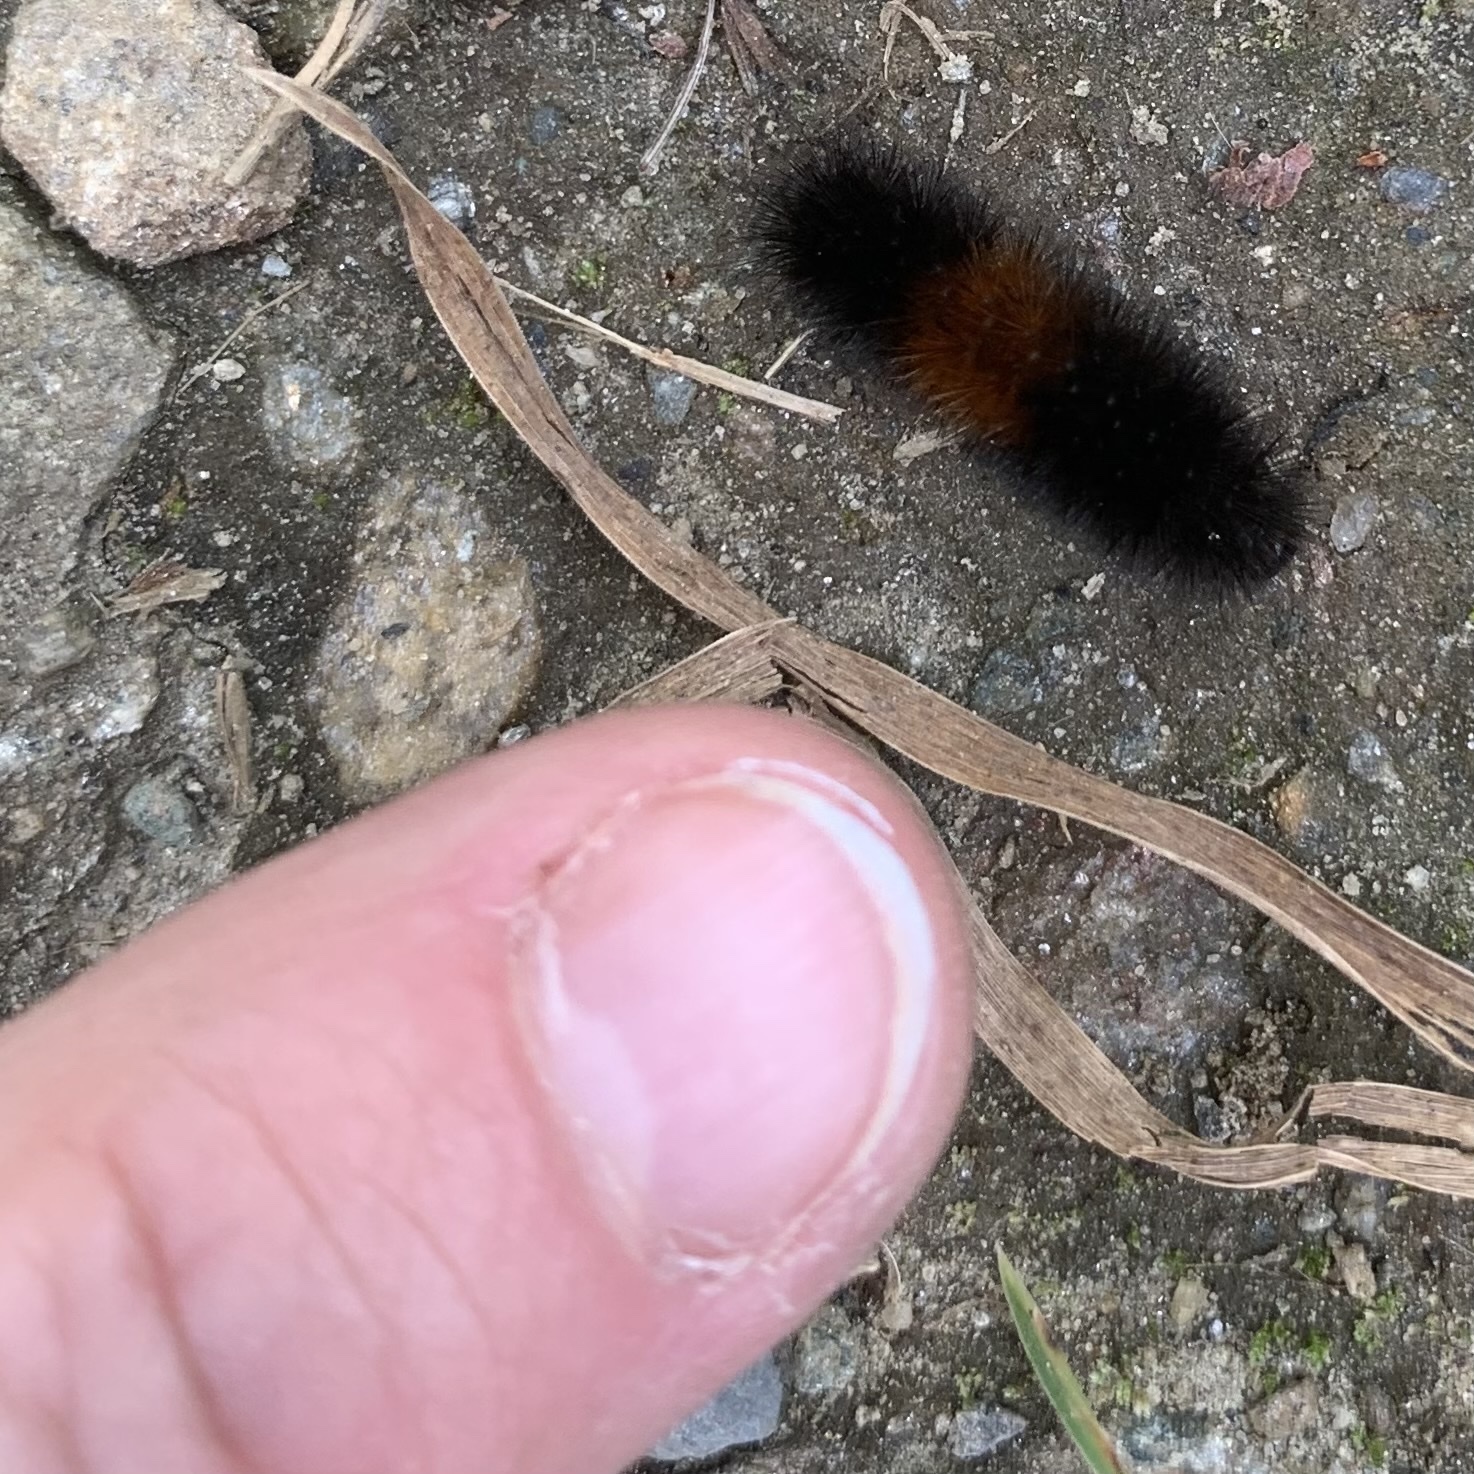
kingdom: Animalia
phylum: Arthropoda
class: Insecta
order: Lepidoptera
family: Erebidae
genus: Pyrrharctia
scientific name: Pyrrharctia isabella
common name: Isabella tiger moth
